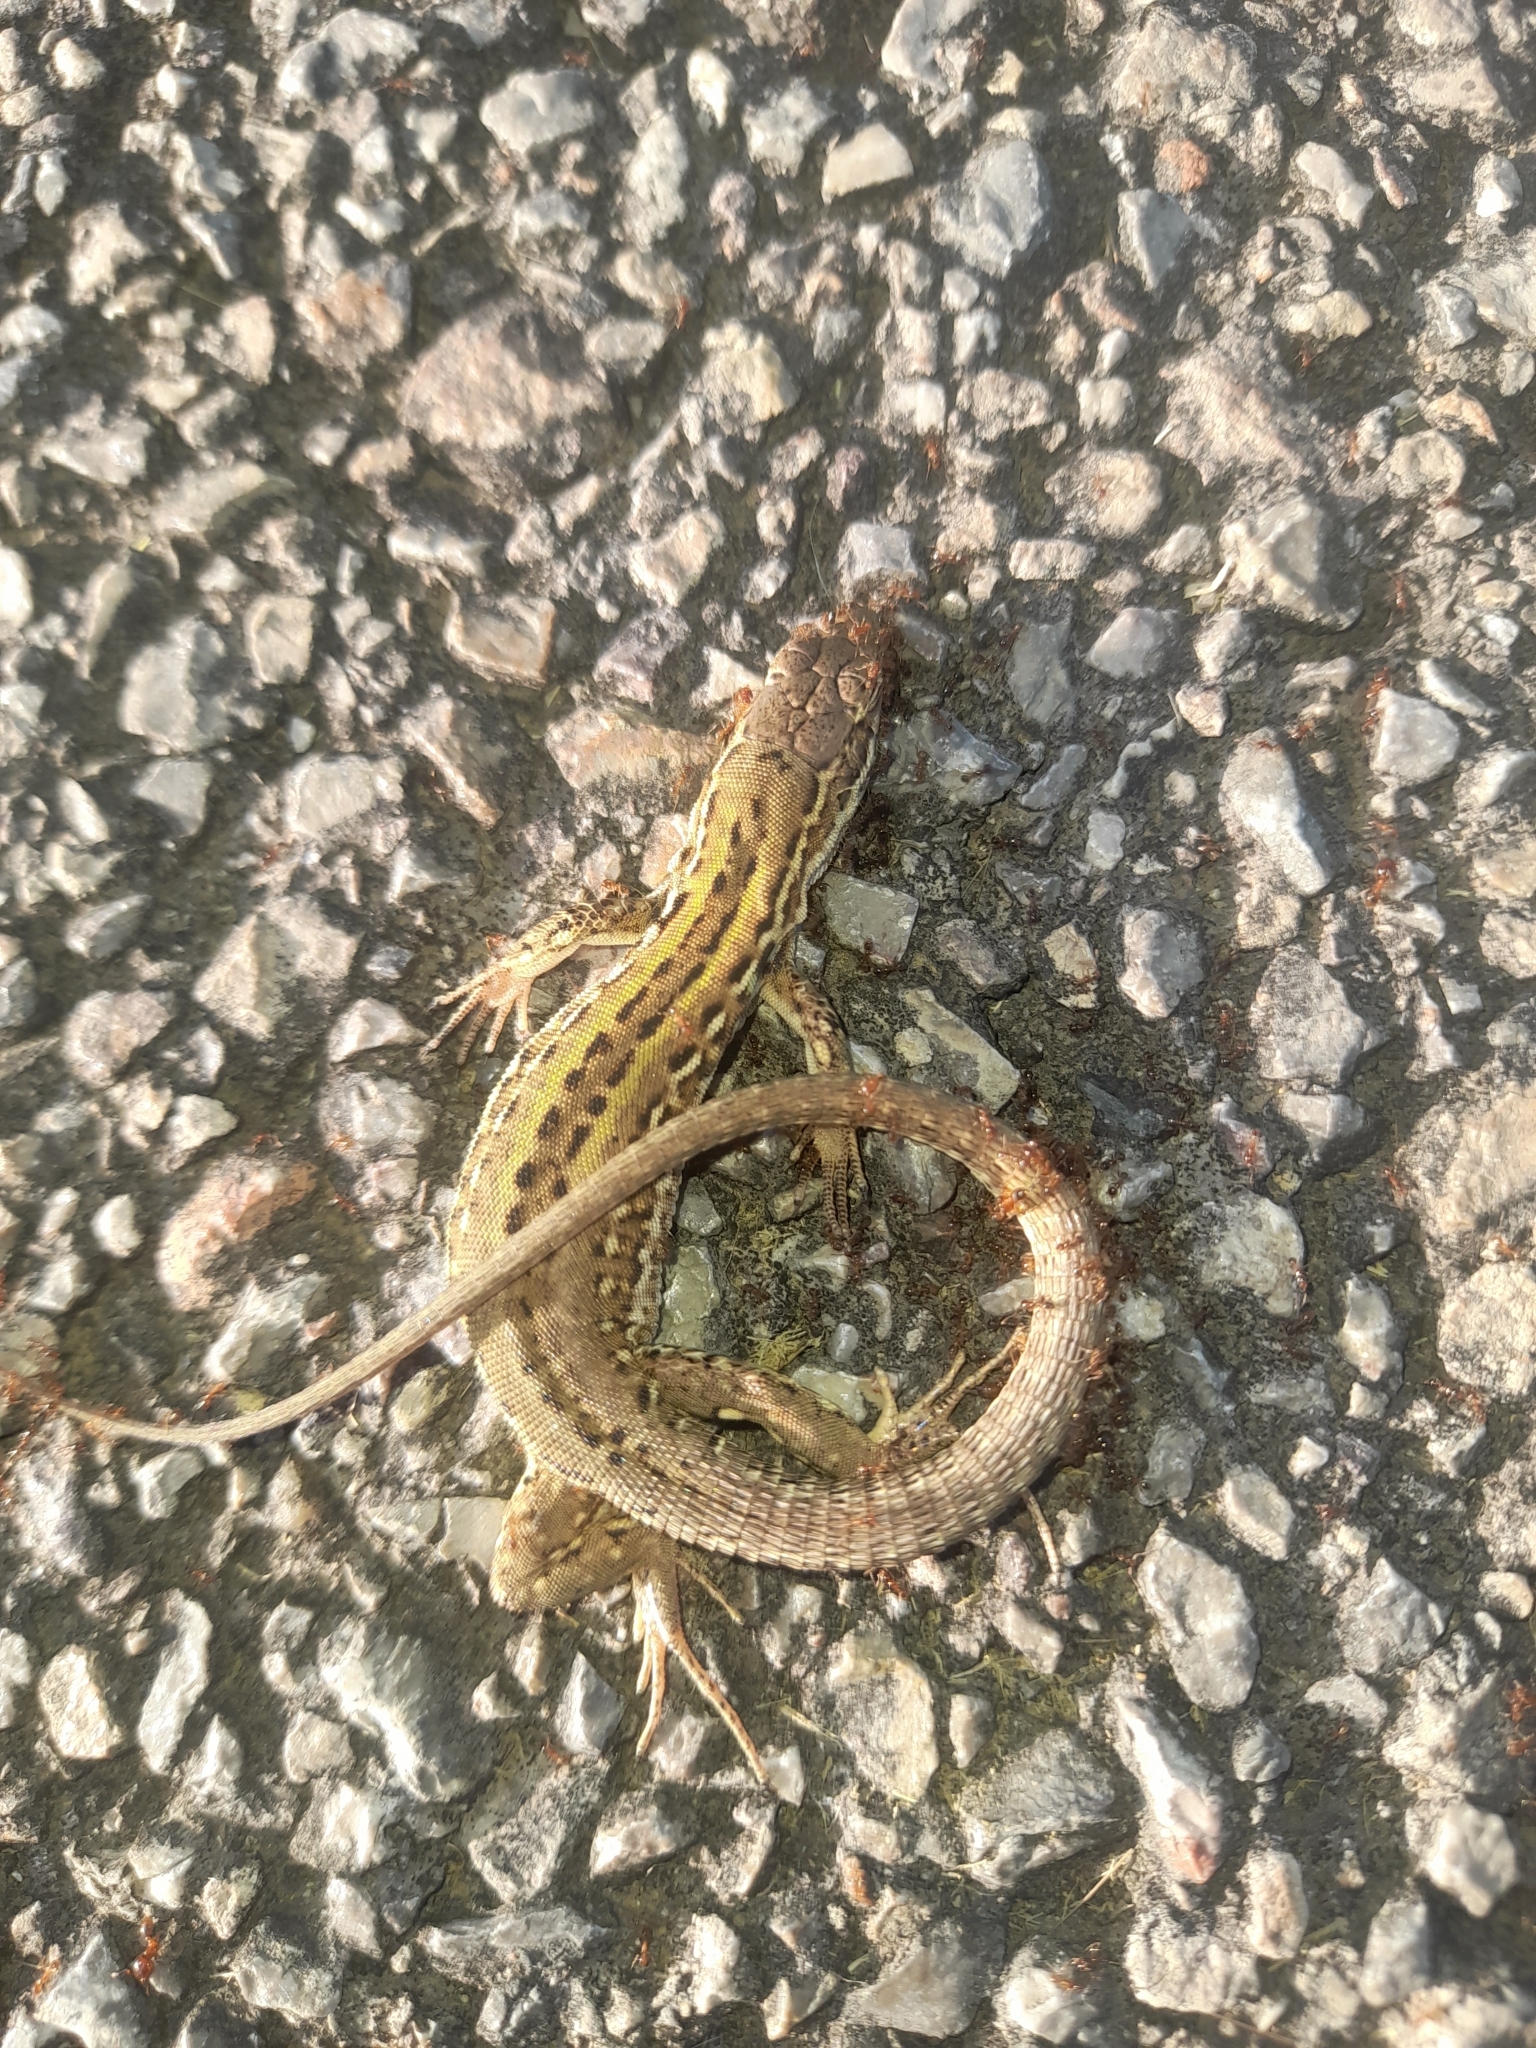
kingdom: Animalia
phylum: Chordata
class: Squamata
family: Lacertidae
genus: Podarcis
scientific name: Podarcis siculus
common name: Italian wall lizard
